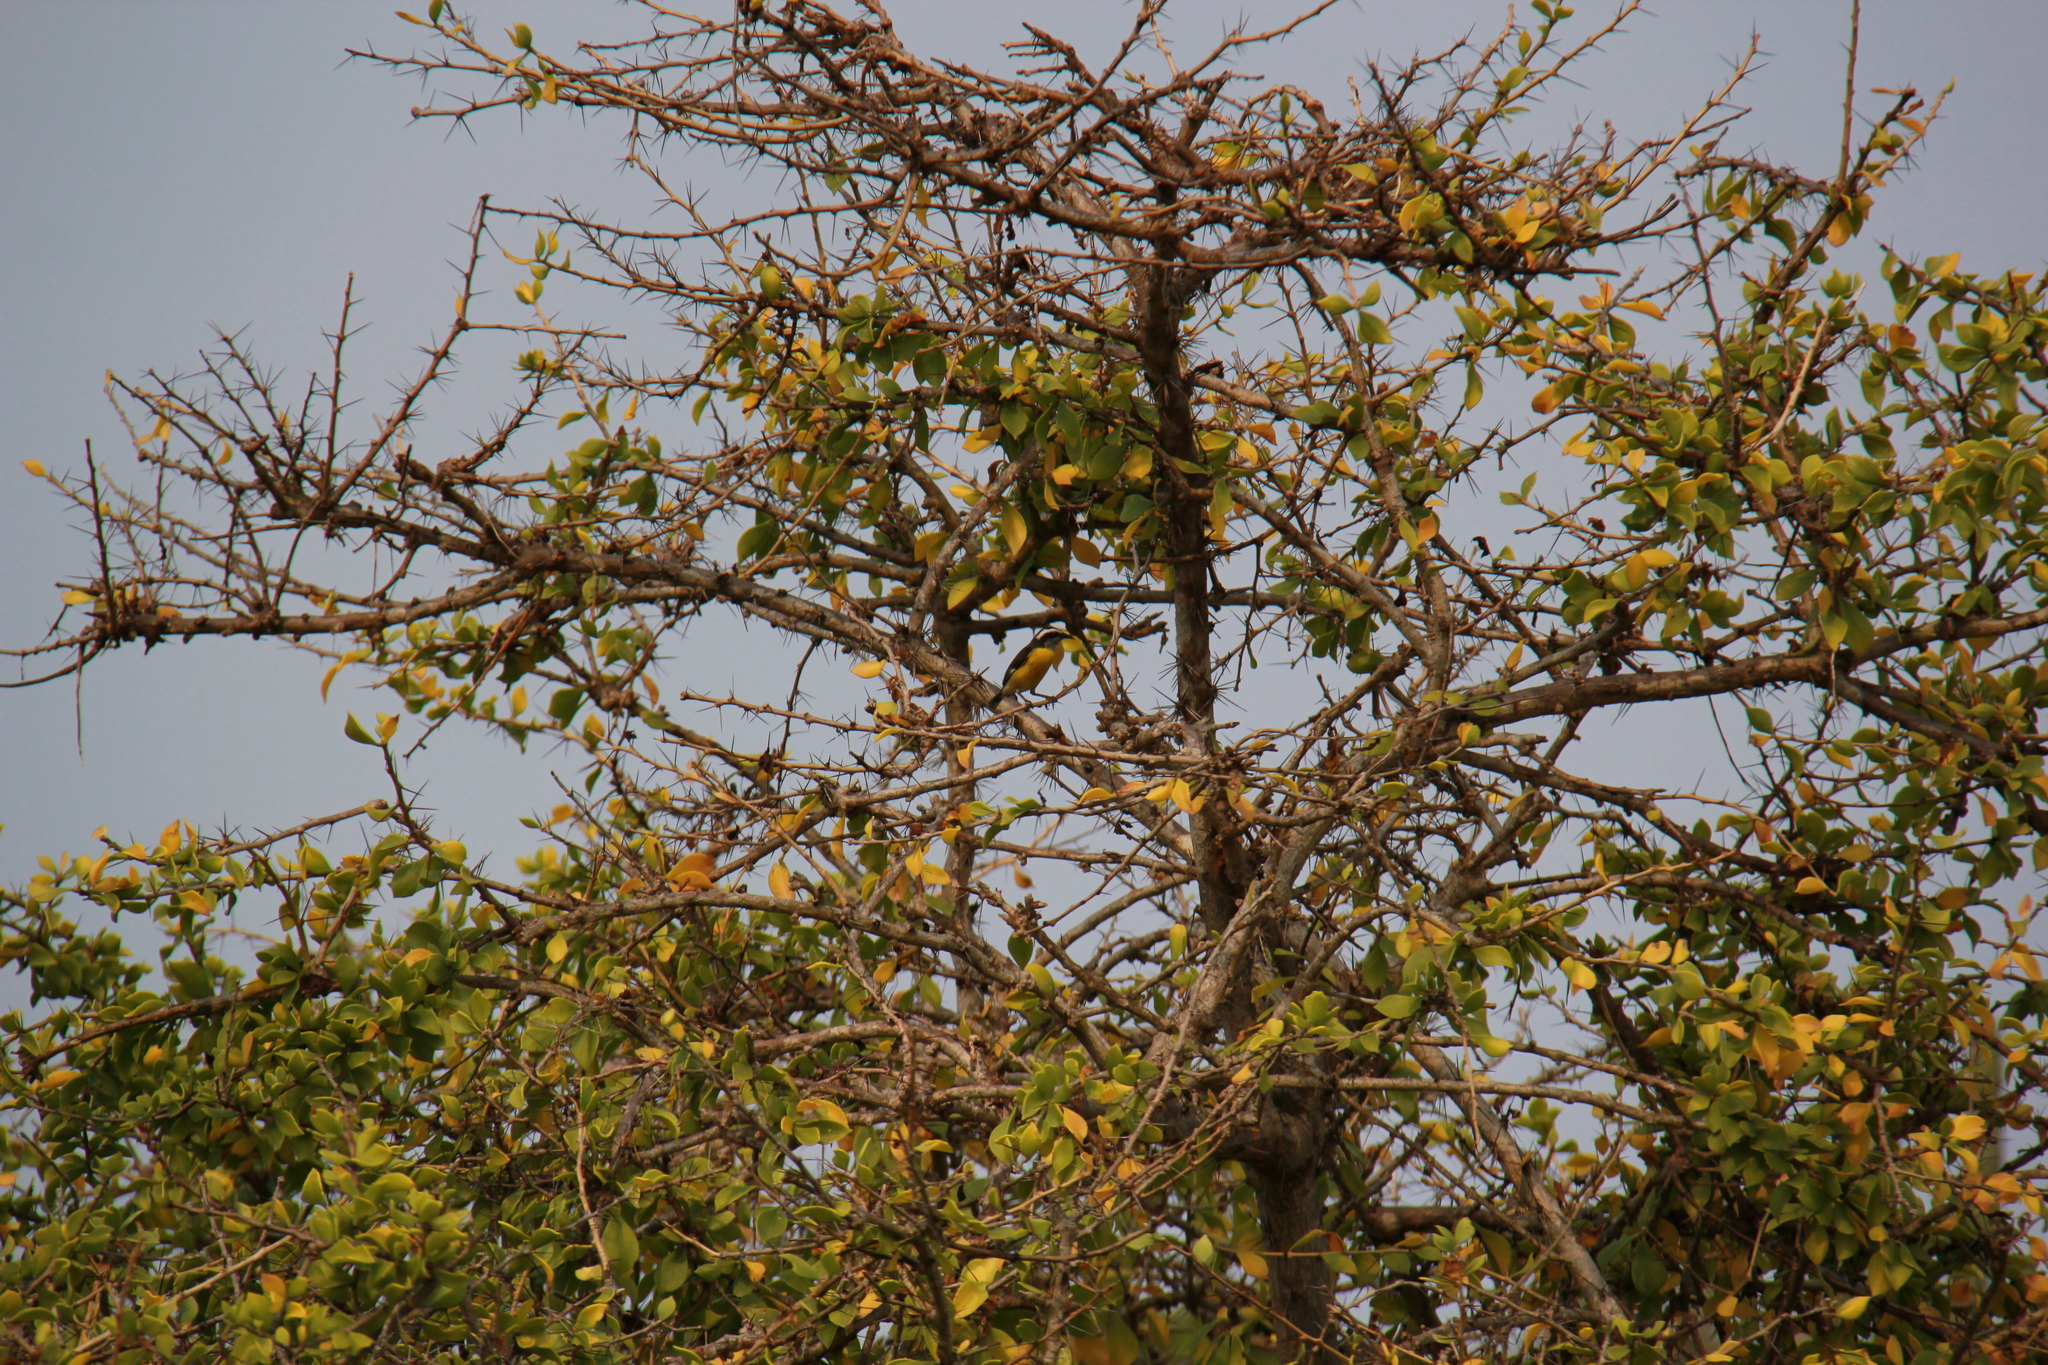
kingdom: Animalia
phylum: Chordata
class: Aves
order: Passeriformes
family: Thraupidae
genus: Coereba
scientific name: Coereba flaveola
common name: Bananaquit
